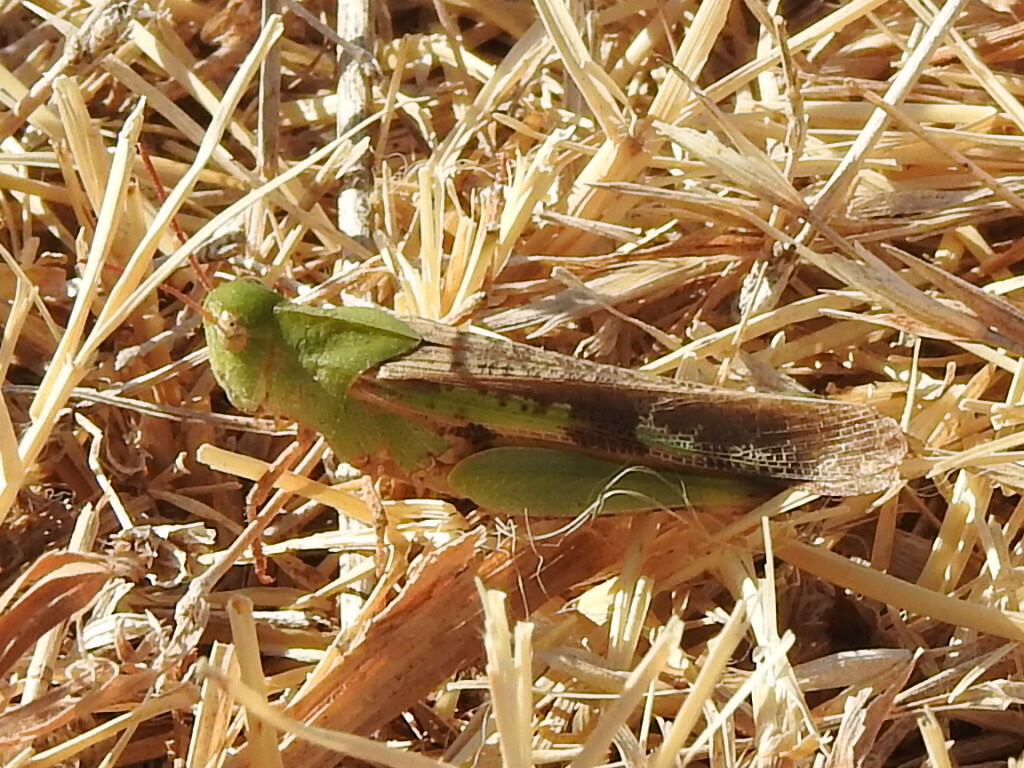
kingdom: Animalia
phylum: Arthropoda
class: Insecta
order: Orthoptera
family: Acrididae
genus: Chortophaga
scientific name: Chortophaga viridifasciata
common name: Green-striped grasshopper
